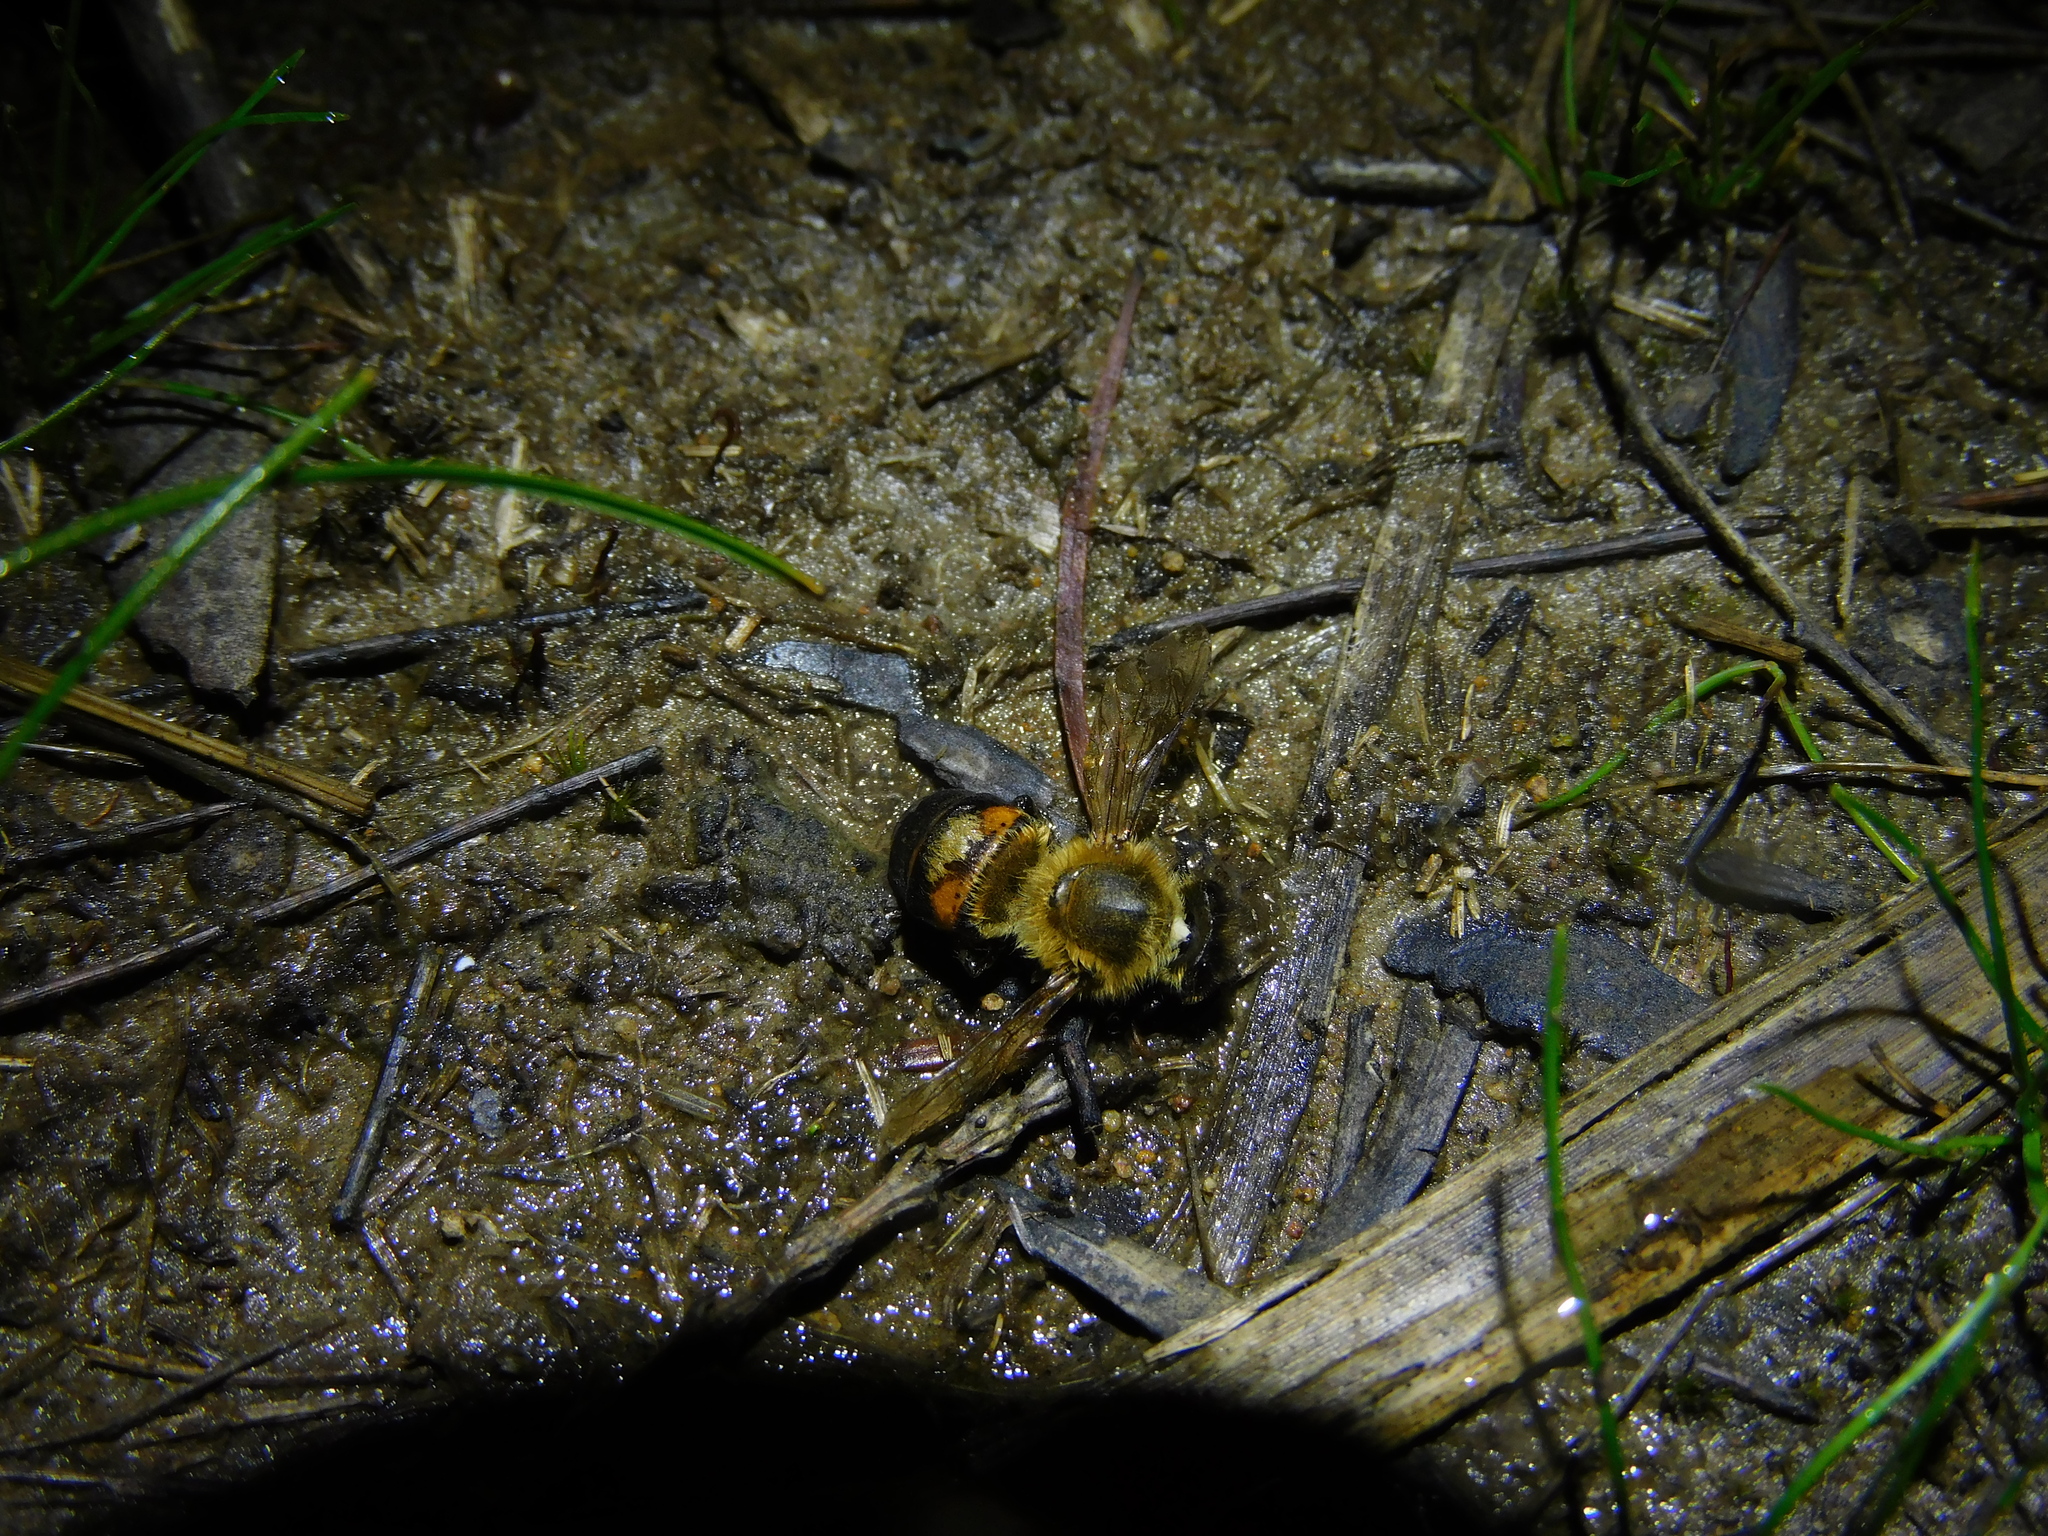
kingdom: Animalia
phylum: Arthropoda
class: Insecta
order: Hymenoptera
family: Apidae
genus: Apis
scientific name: Apis mellifera
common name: Honey bee
